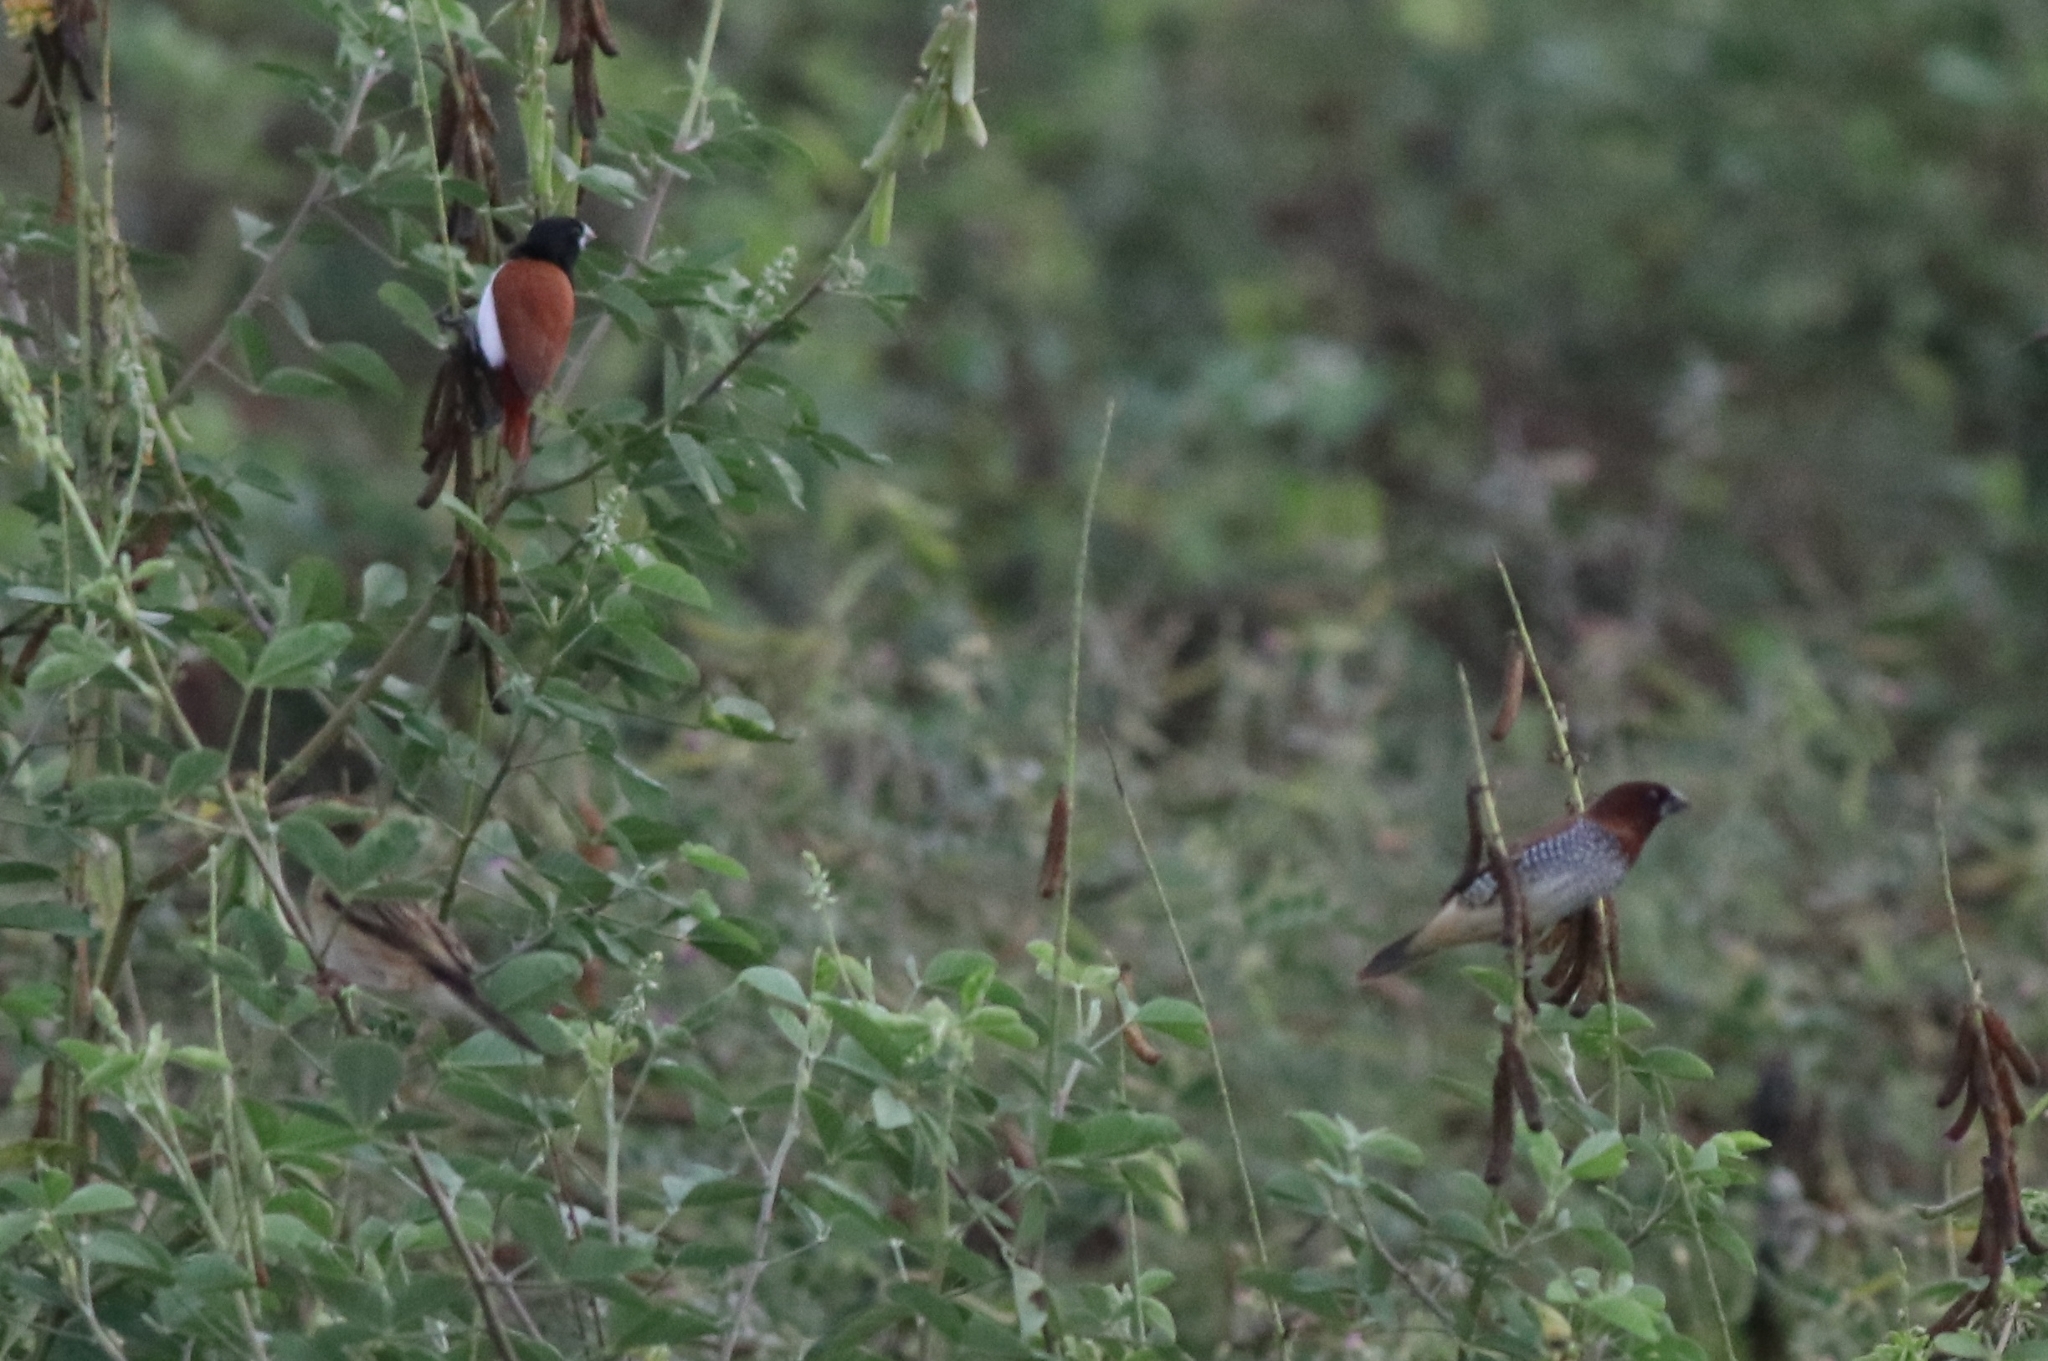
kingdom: Animalia
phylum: Chordata
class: Aves
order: Passeriformes
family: Estrildidae
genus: Lonchura
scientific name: Lonchura punctulata
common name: Scaly-breasted munia
